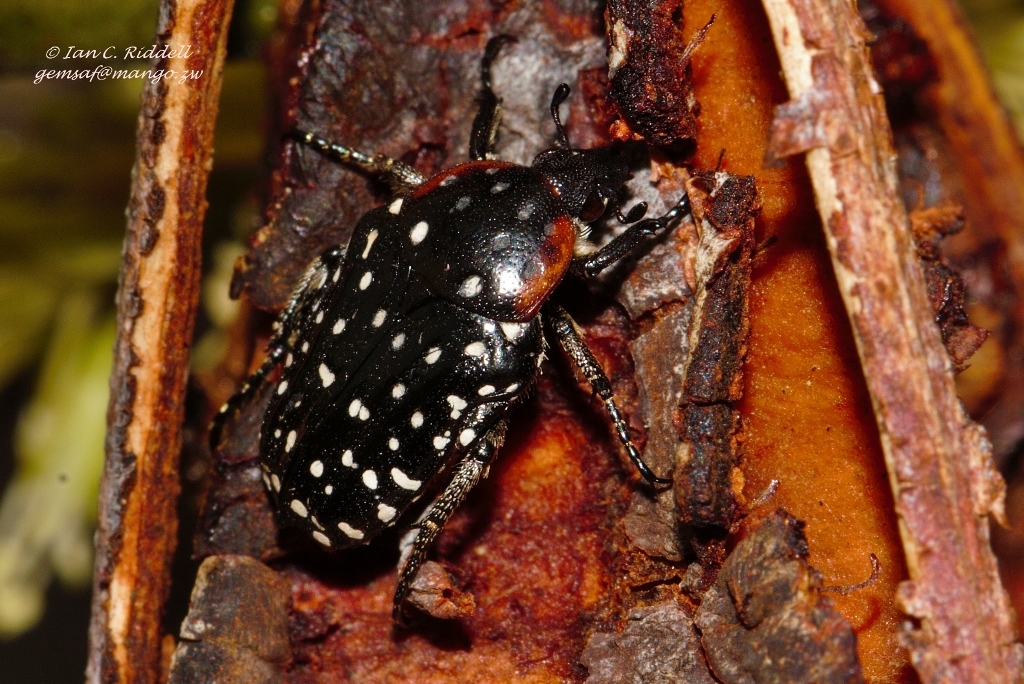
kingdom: Animalia
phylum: Arthropoda
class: Insecta
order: Coleoptera
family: Scarabaeidae
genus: Oxythyrea
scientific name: Oxythyrea
